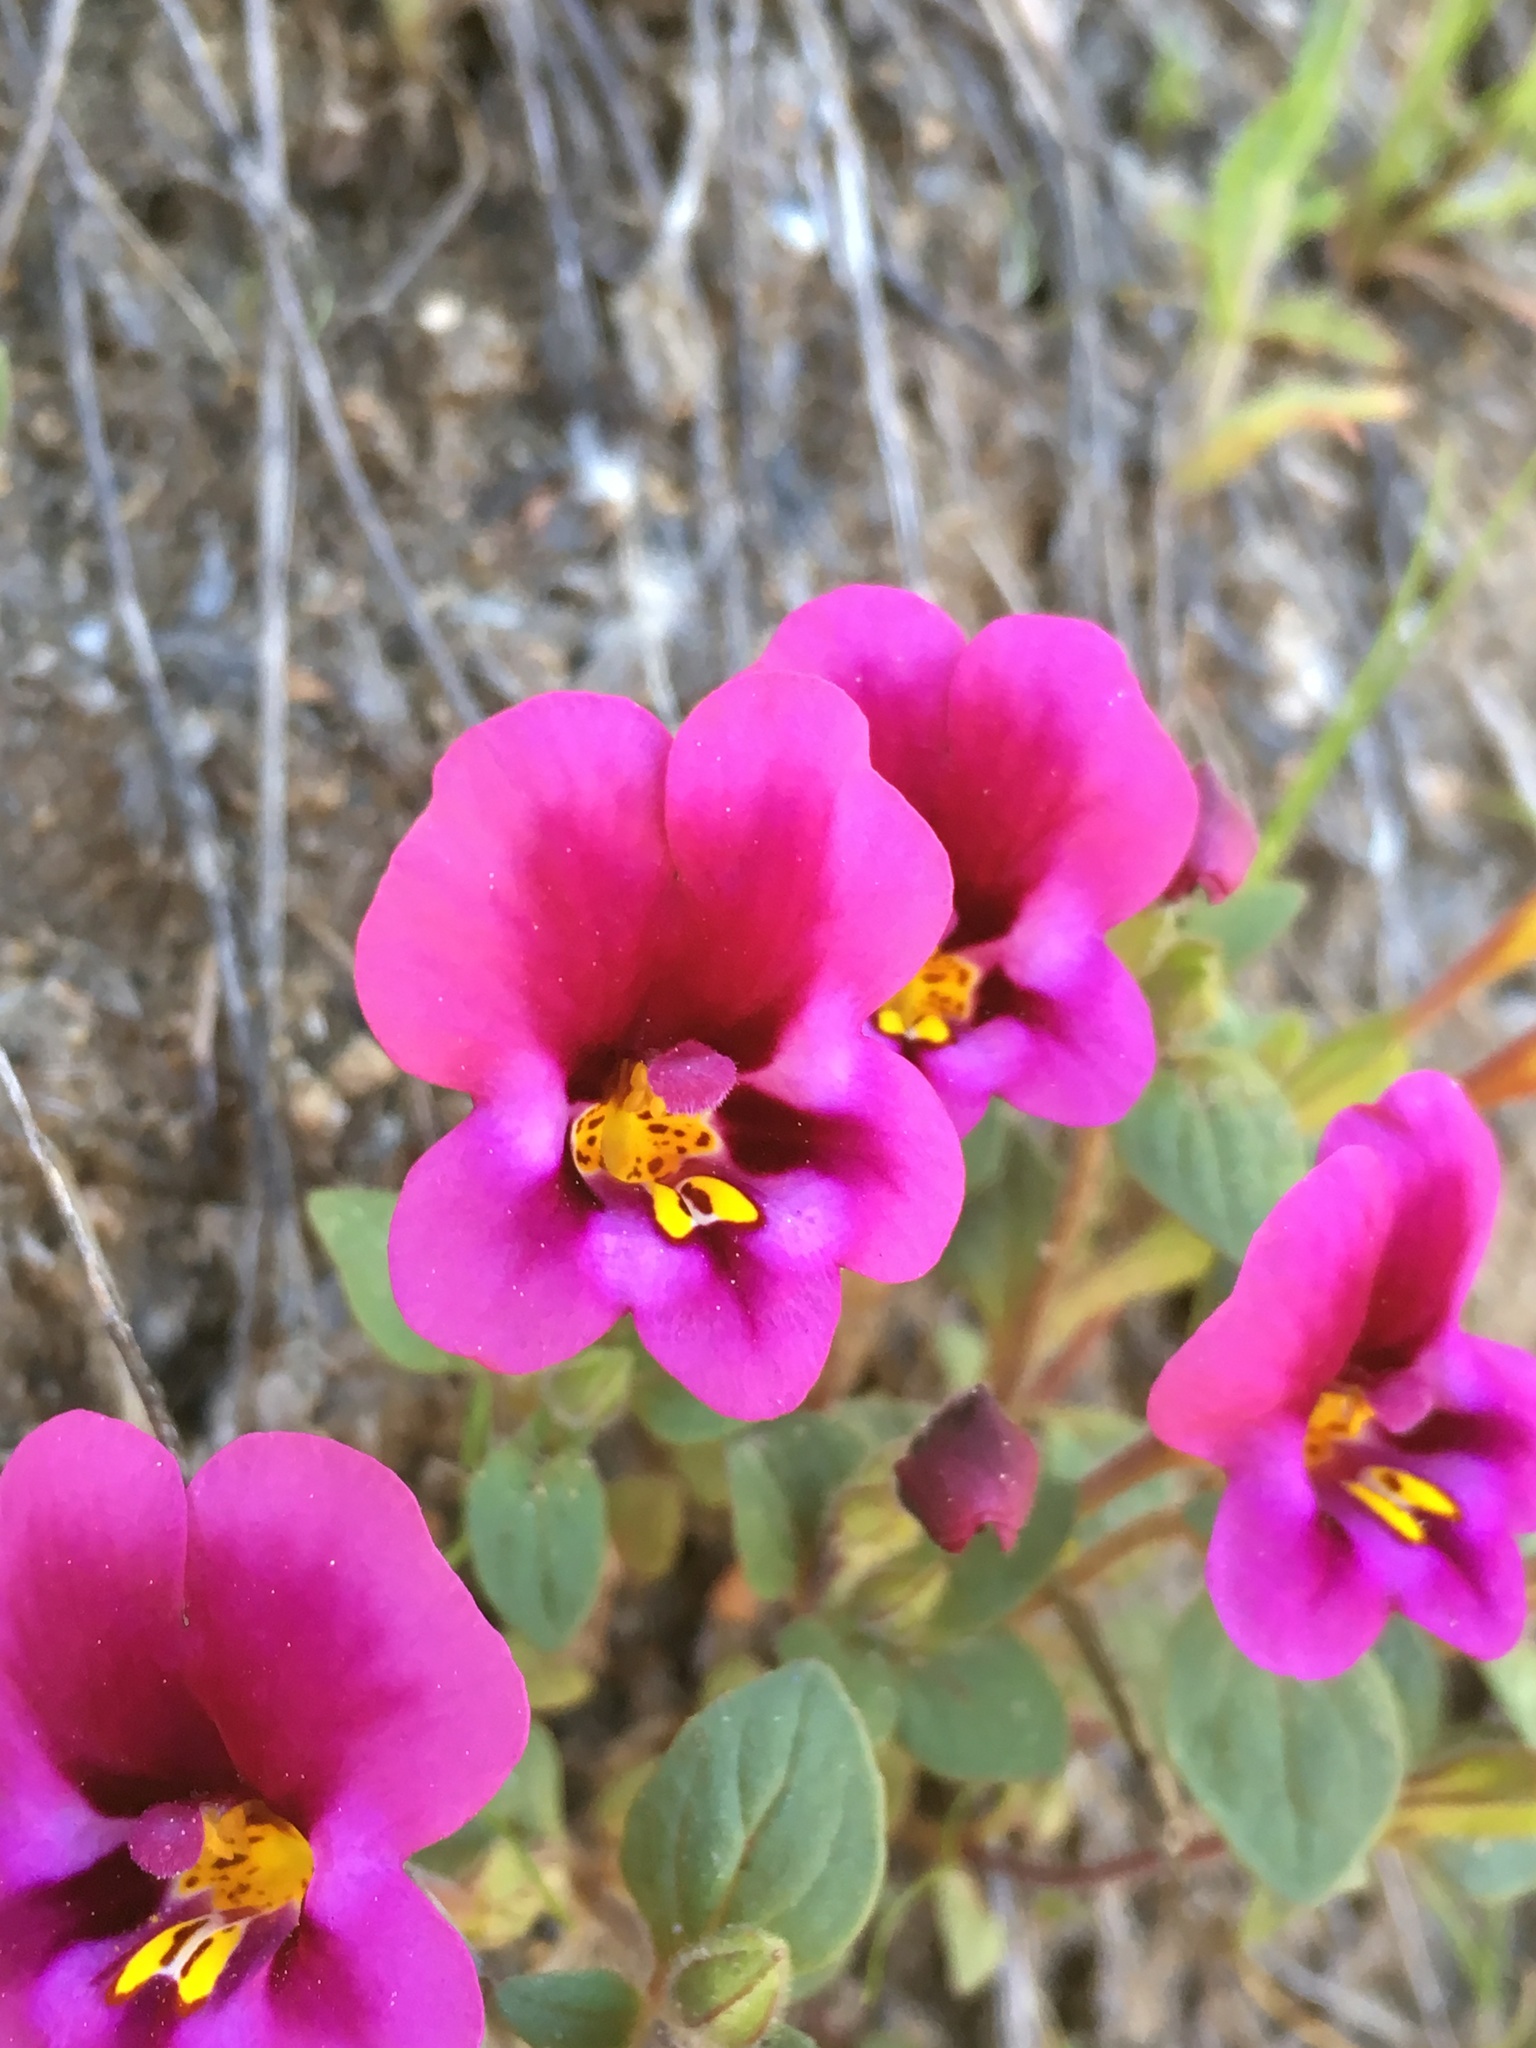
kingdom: Plantae
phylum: Tracheophyta
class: Magnoliopsida
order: Lamiales
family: Phrymaceae
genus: Diplacus
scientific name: Diplacus kelloggii
